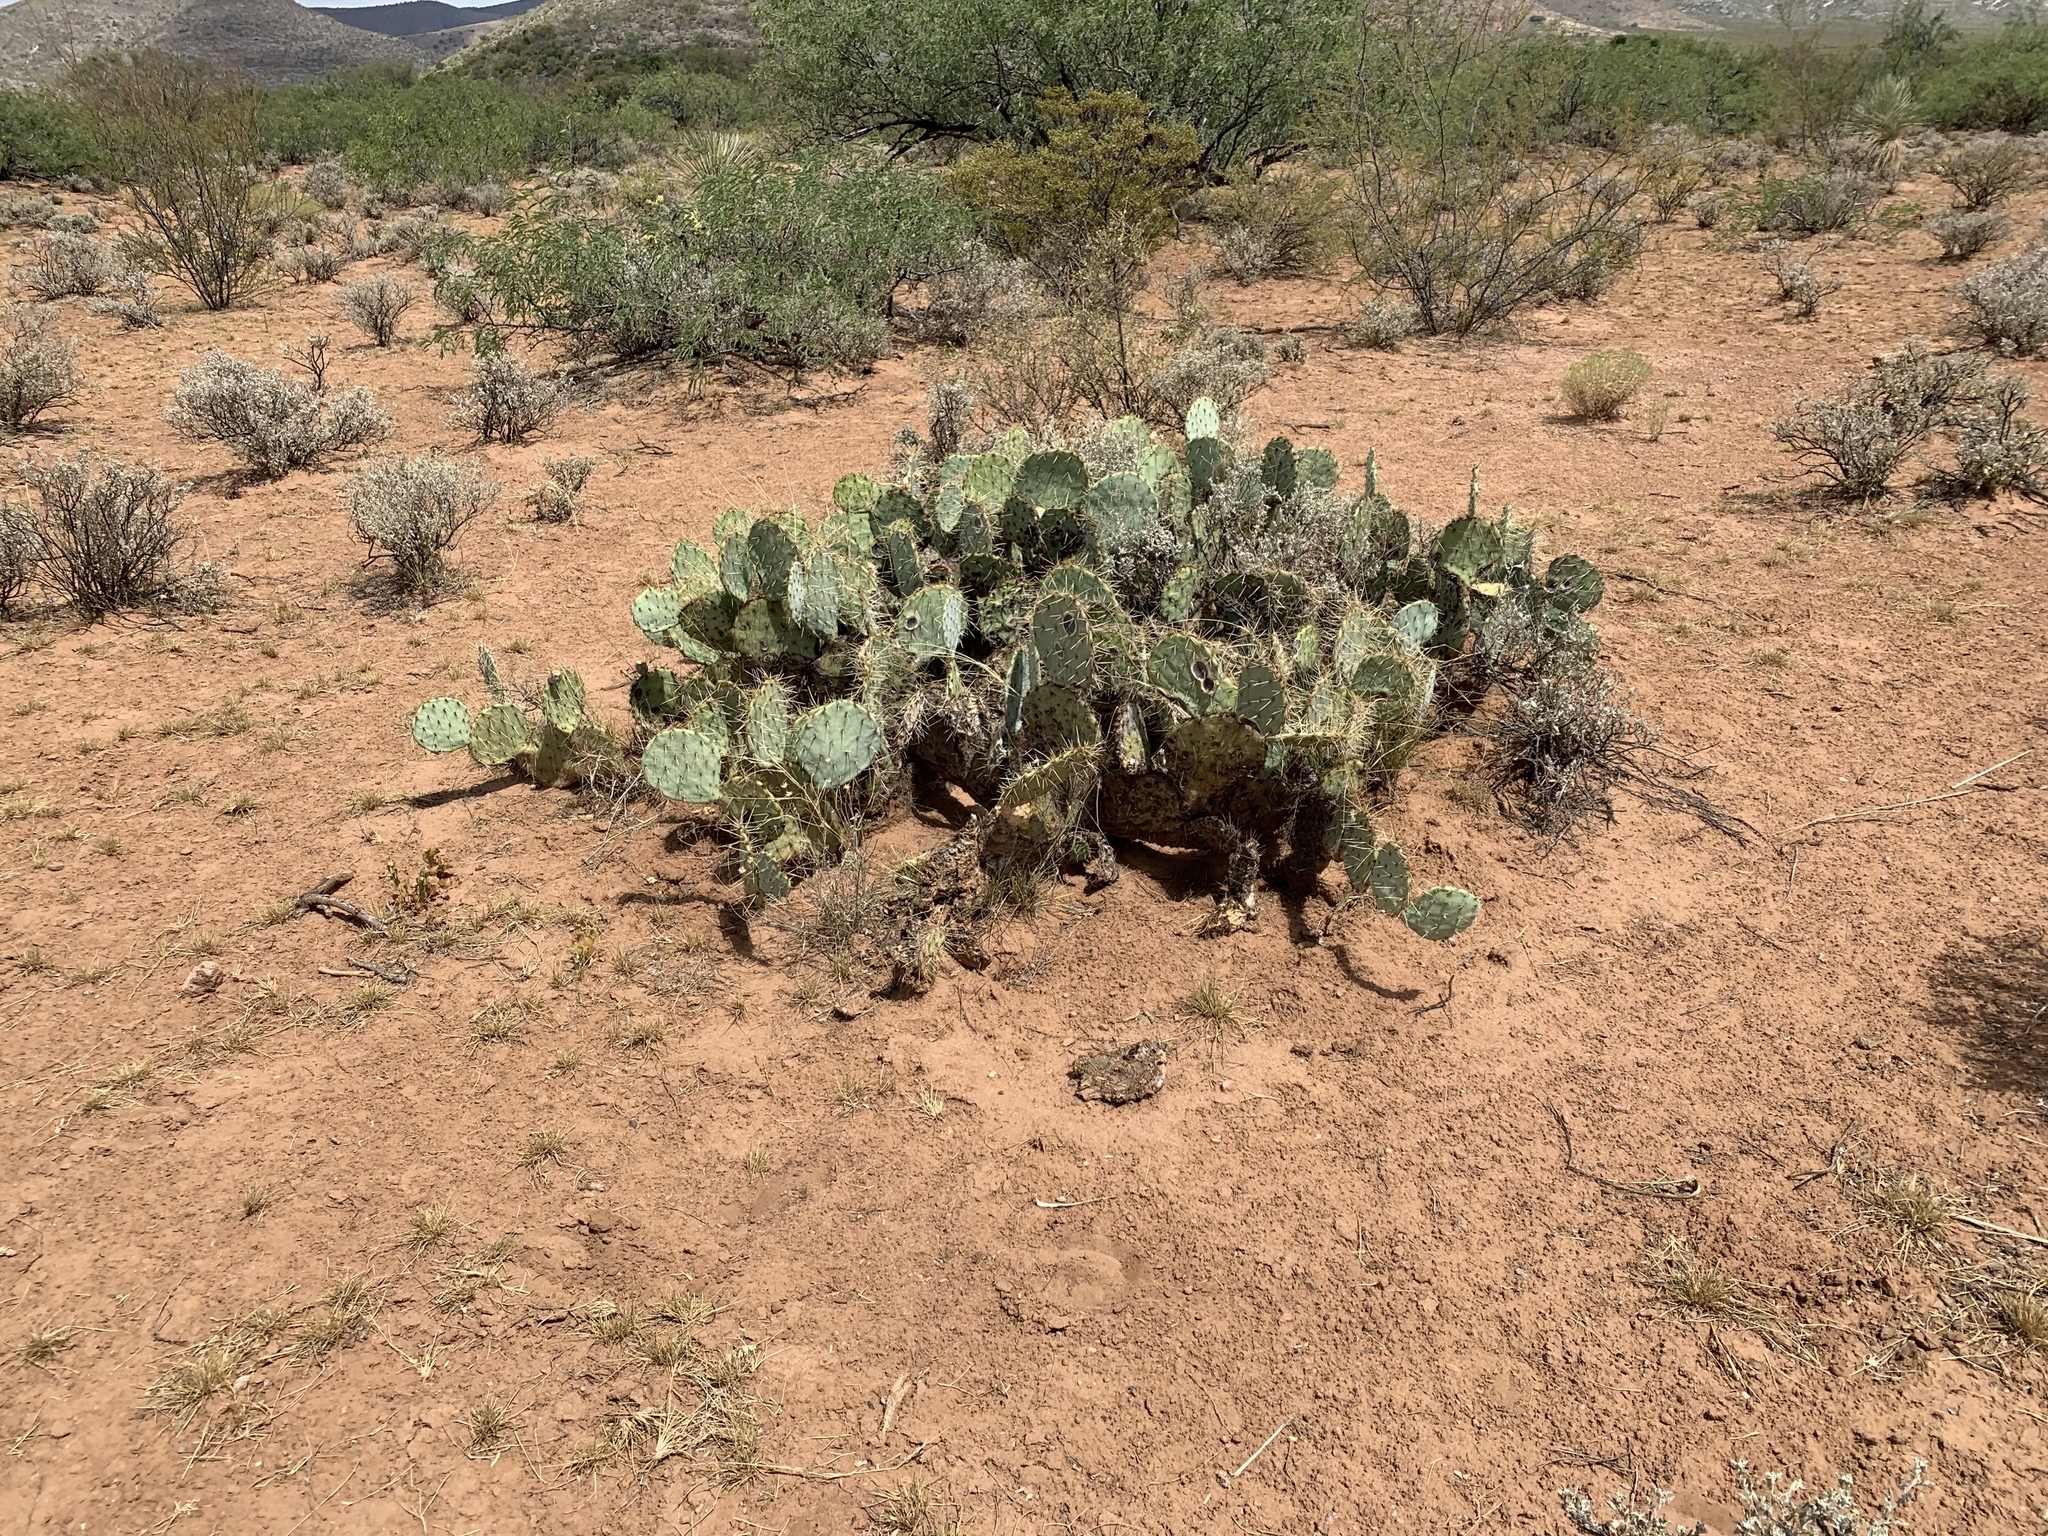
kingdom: Plantae
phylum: Tracheophyta
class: Magnoliopsida
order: Caryophyllales
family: Cactaceae
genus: Opuntia
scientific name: Opuntia engelmannii
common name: Cactus-apple
